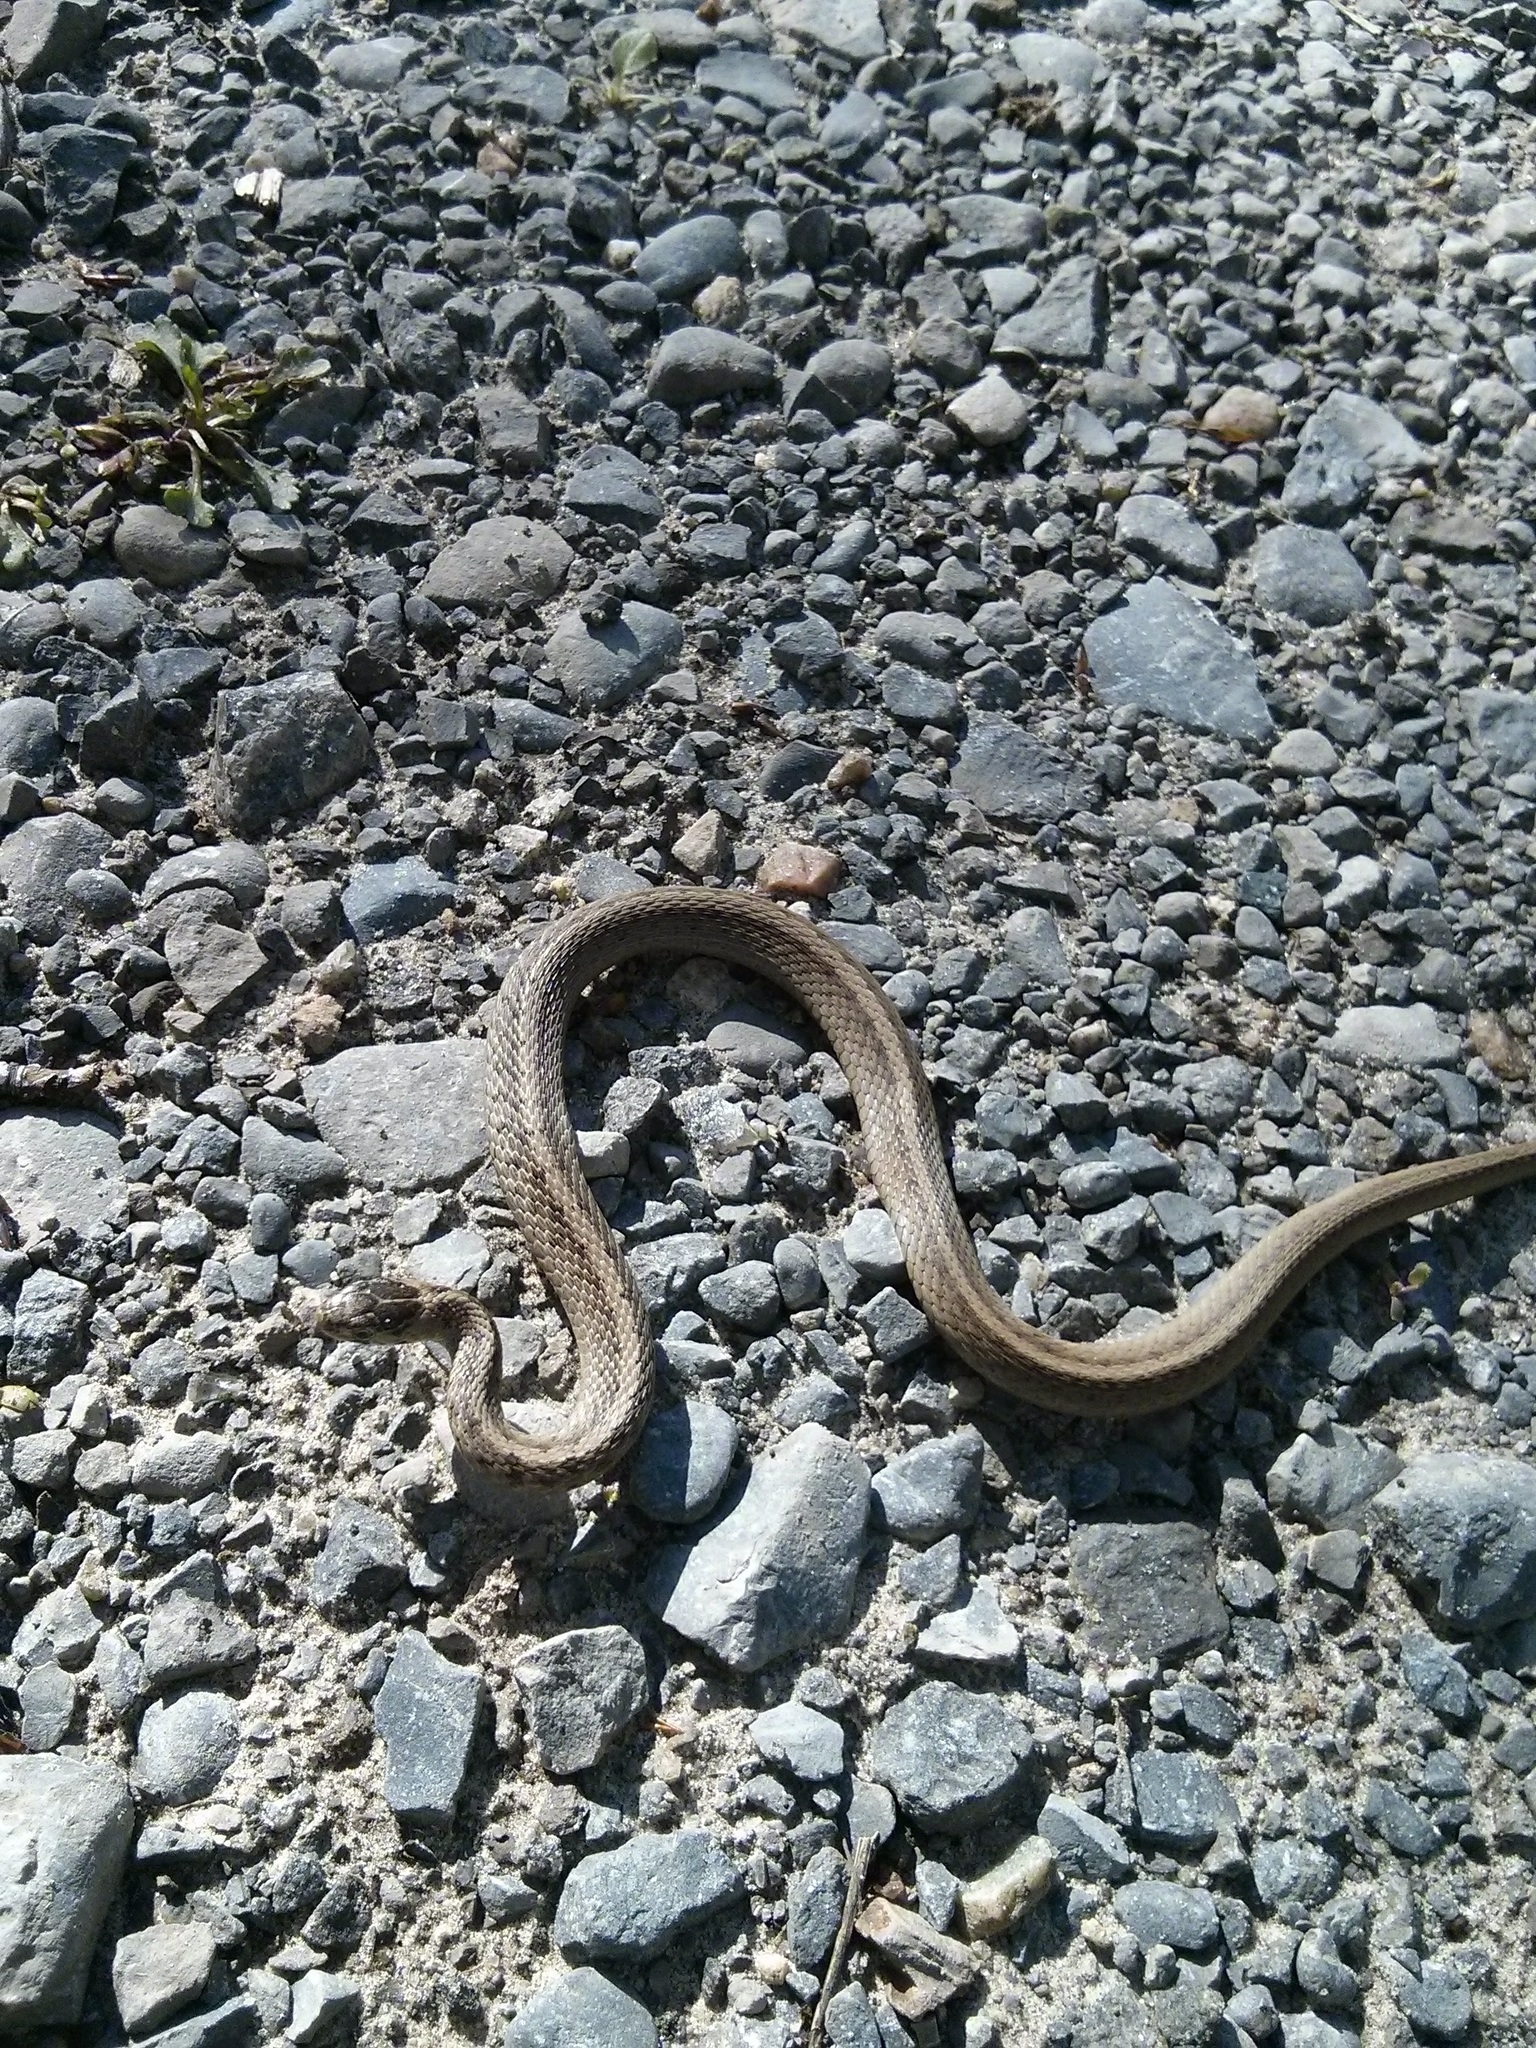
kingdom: Animalia
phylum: Chordata
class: Squamata
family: Colubridae
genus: Storeria
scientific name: Storeria dekayi
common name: (dekay’s) brown snake
